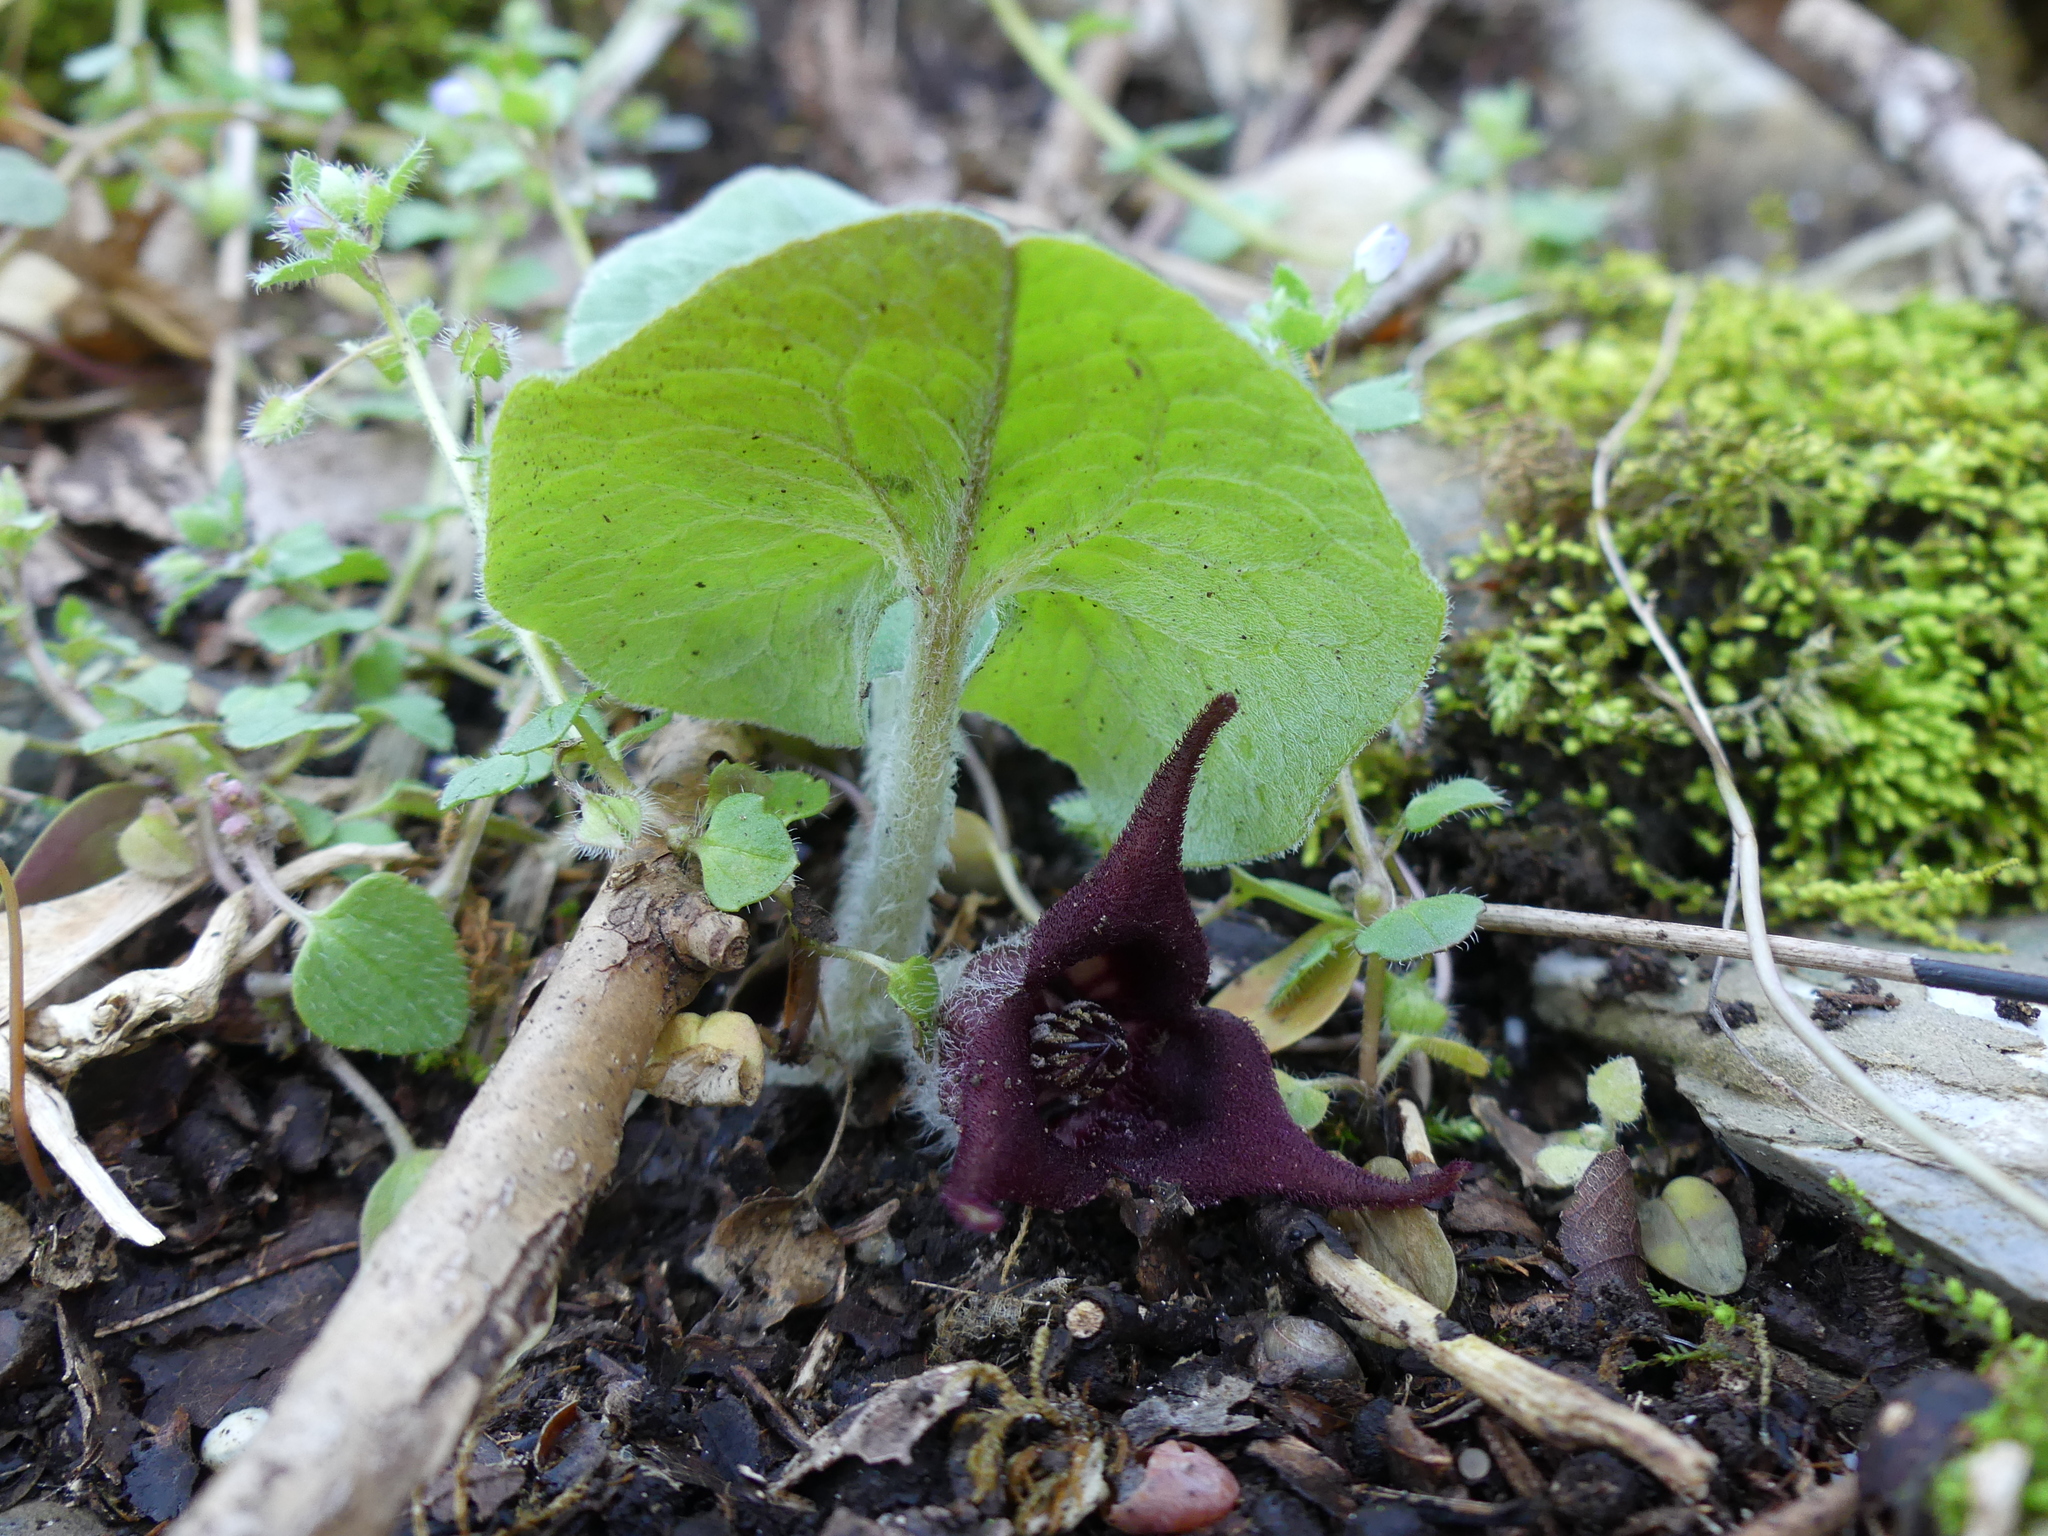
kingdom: Plantae
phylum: Tracheophyta
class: Magnoliopsida
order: Piperales
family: Aristolochiaceae
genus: Asarum
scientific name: Asarum canadense
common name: Wild ginger
